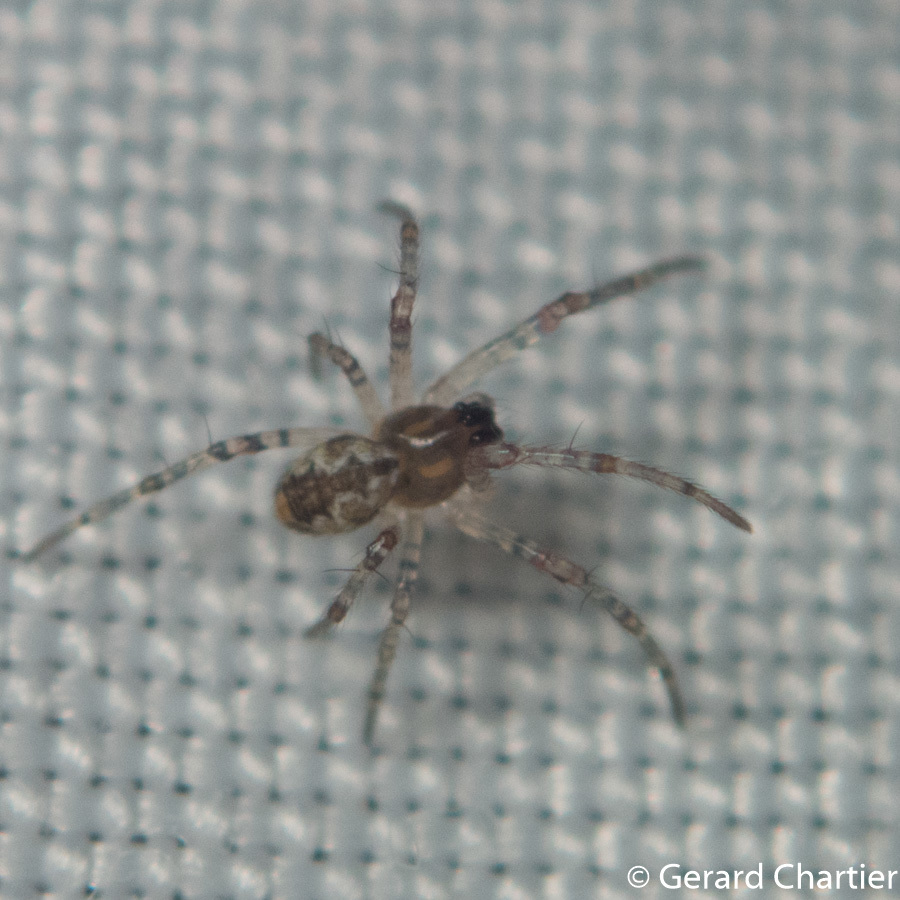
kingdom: Animalia
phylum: Arthropoda
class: Arachnida
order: Araneae
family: Araneidae
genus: Nephilengys
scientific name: Nephilengys malabarensis
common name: Asian hermit spider
